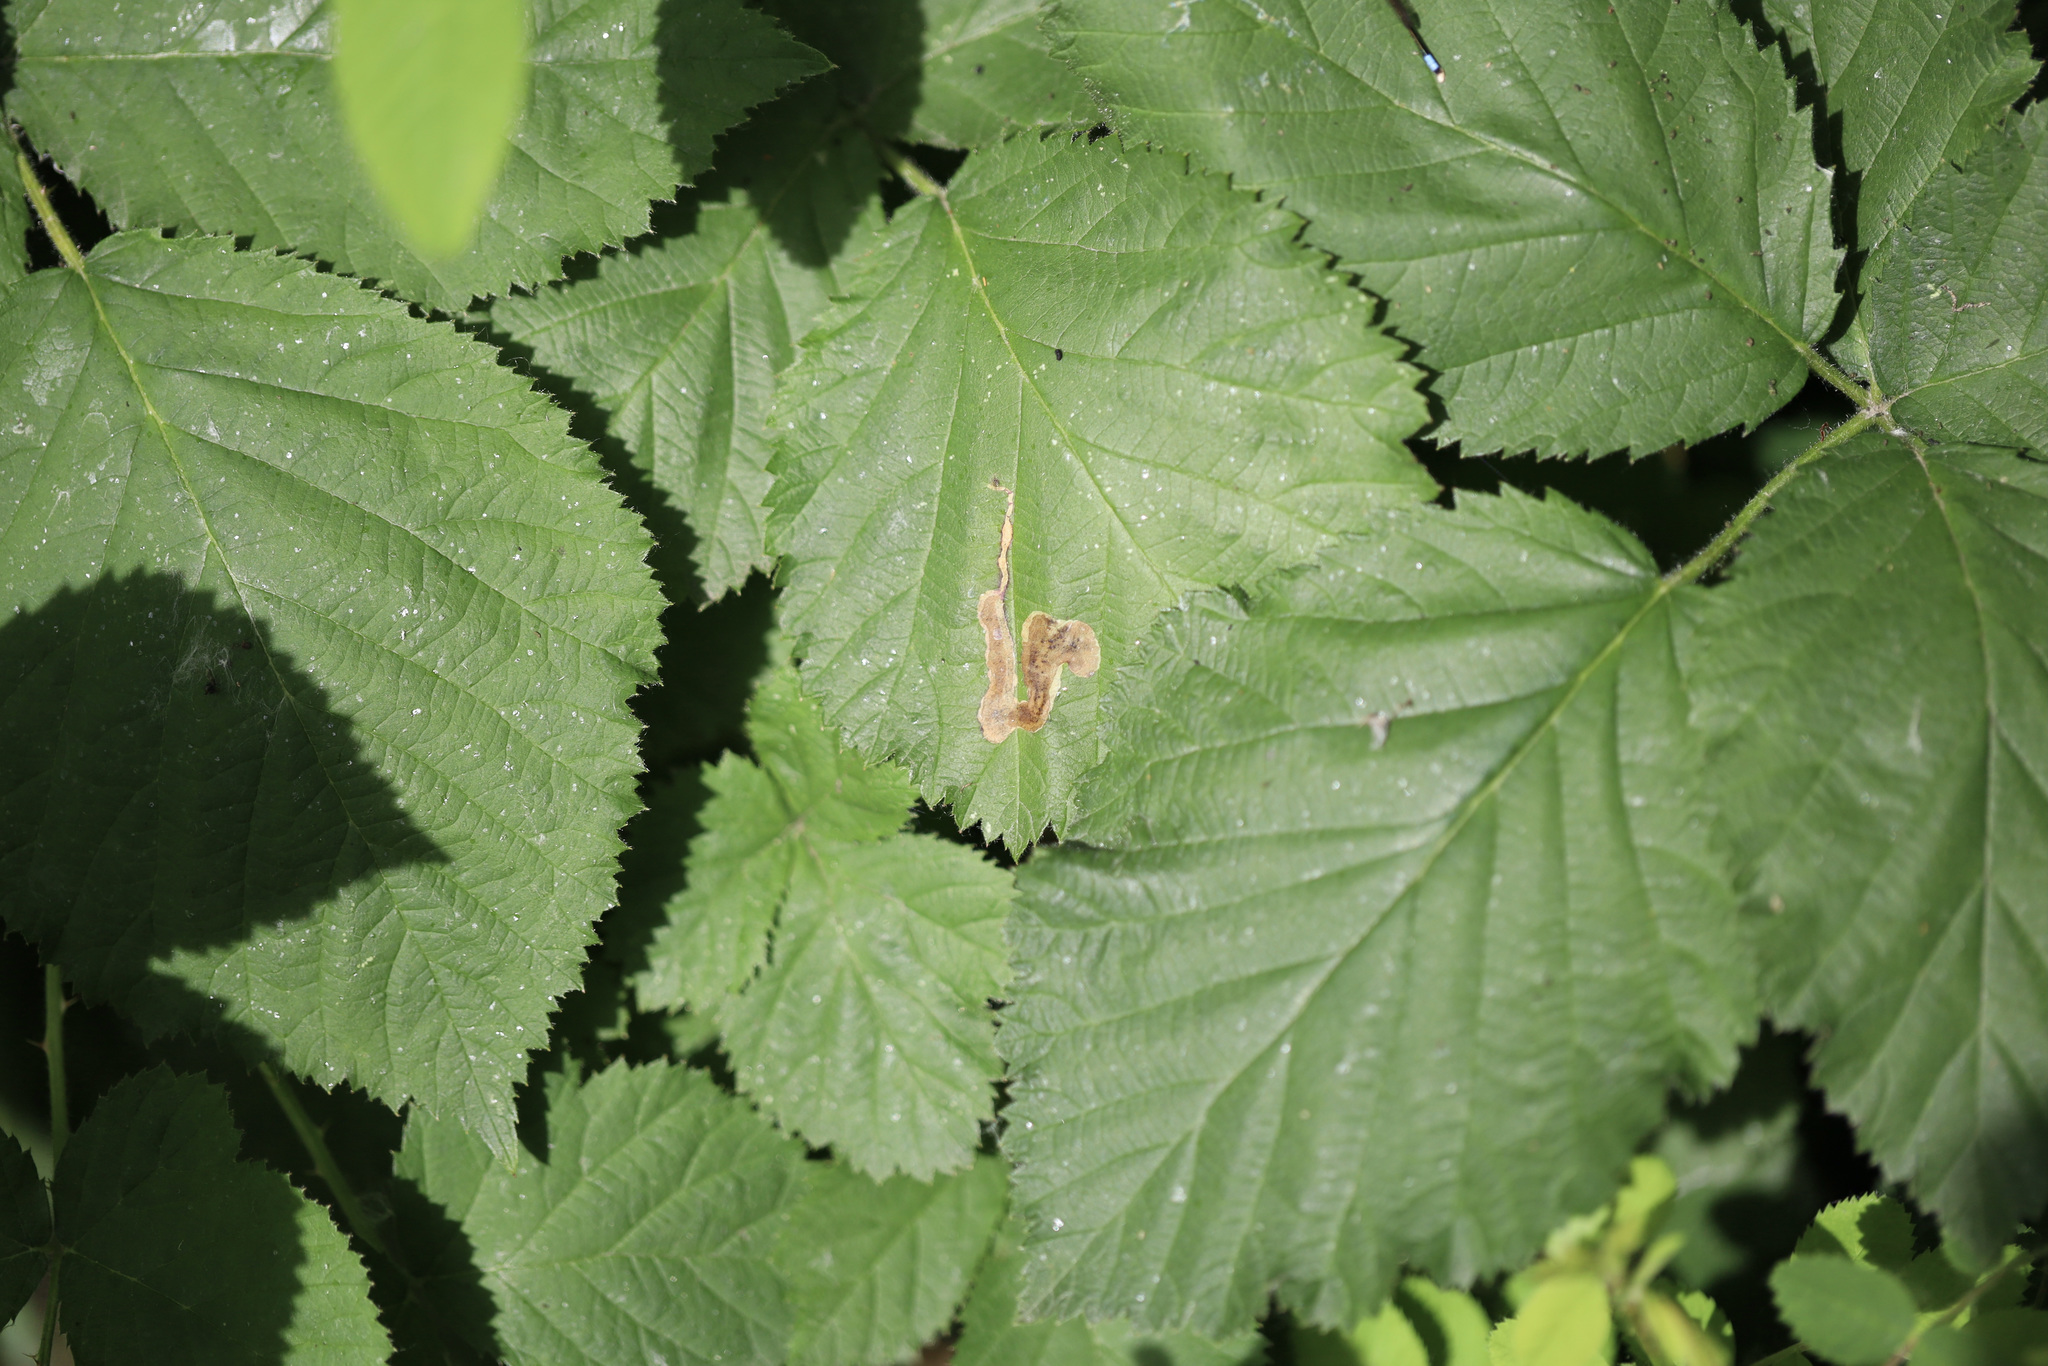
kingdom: Animalia
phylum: Arthropoda
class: Insecta
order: Diptera
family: Agromyzidae
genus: Agromyza
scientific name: Agromyza vockerothi
